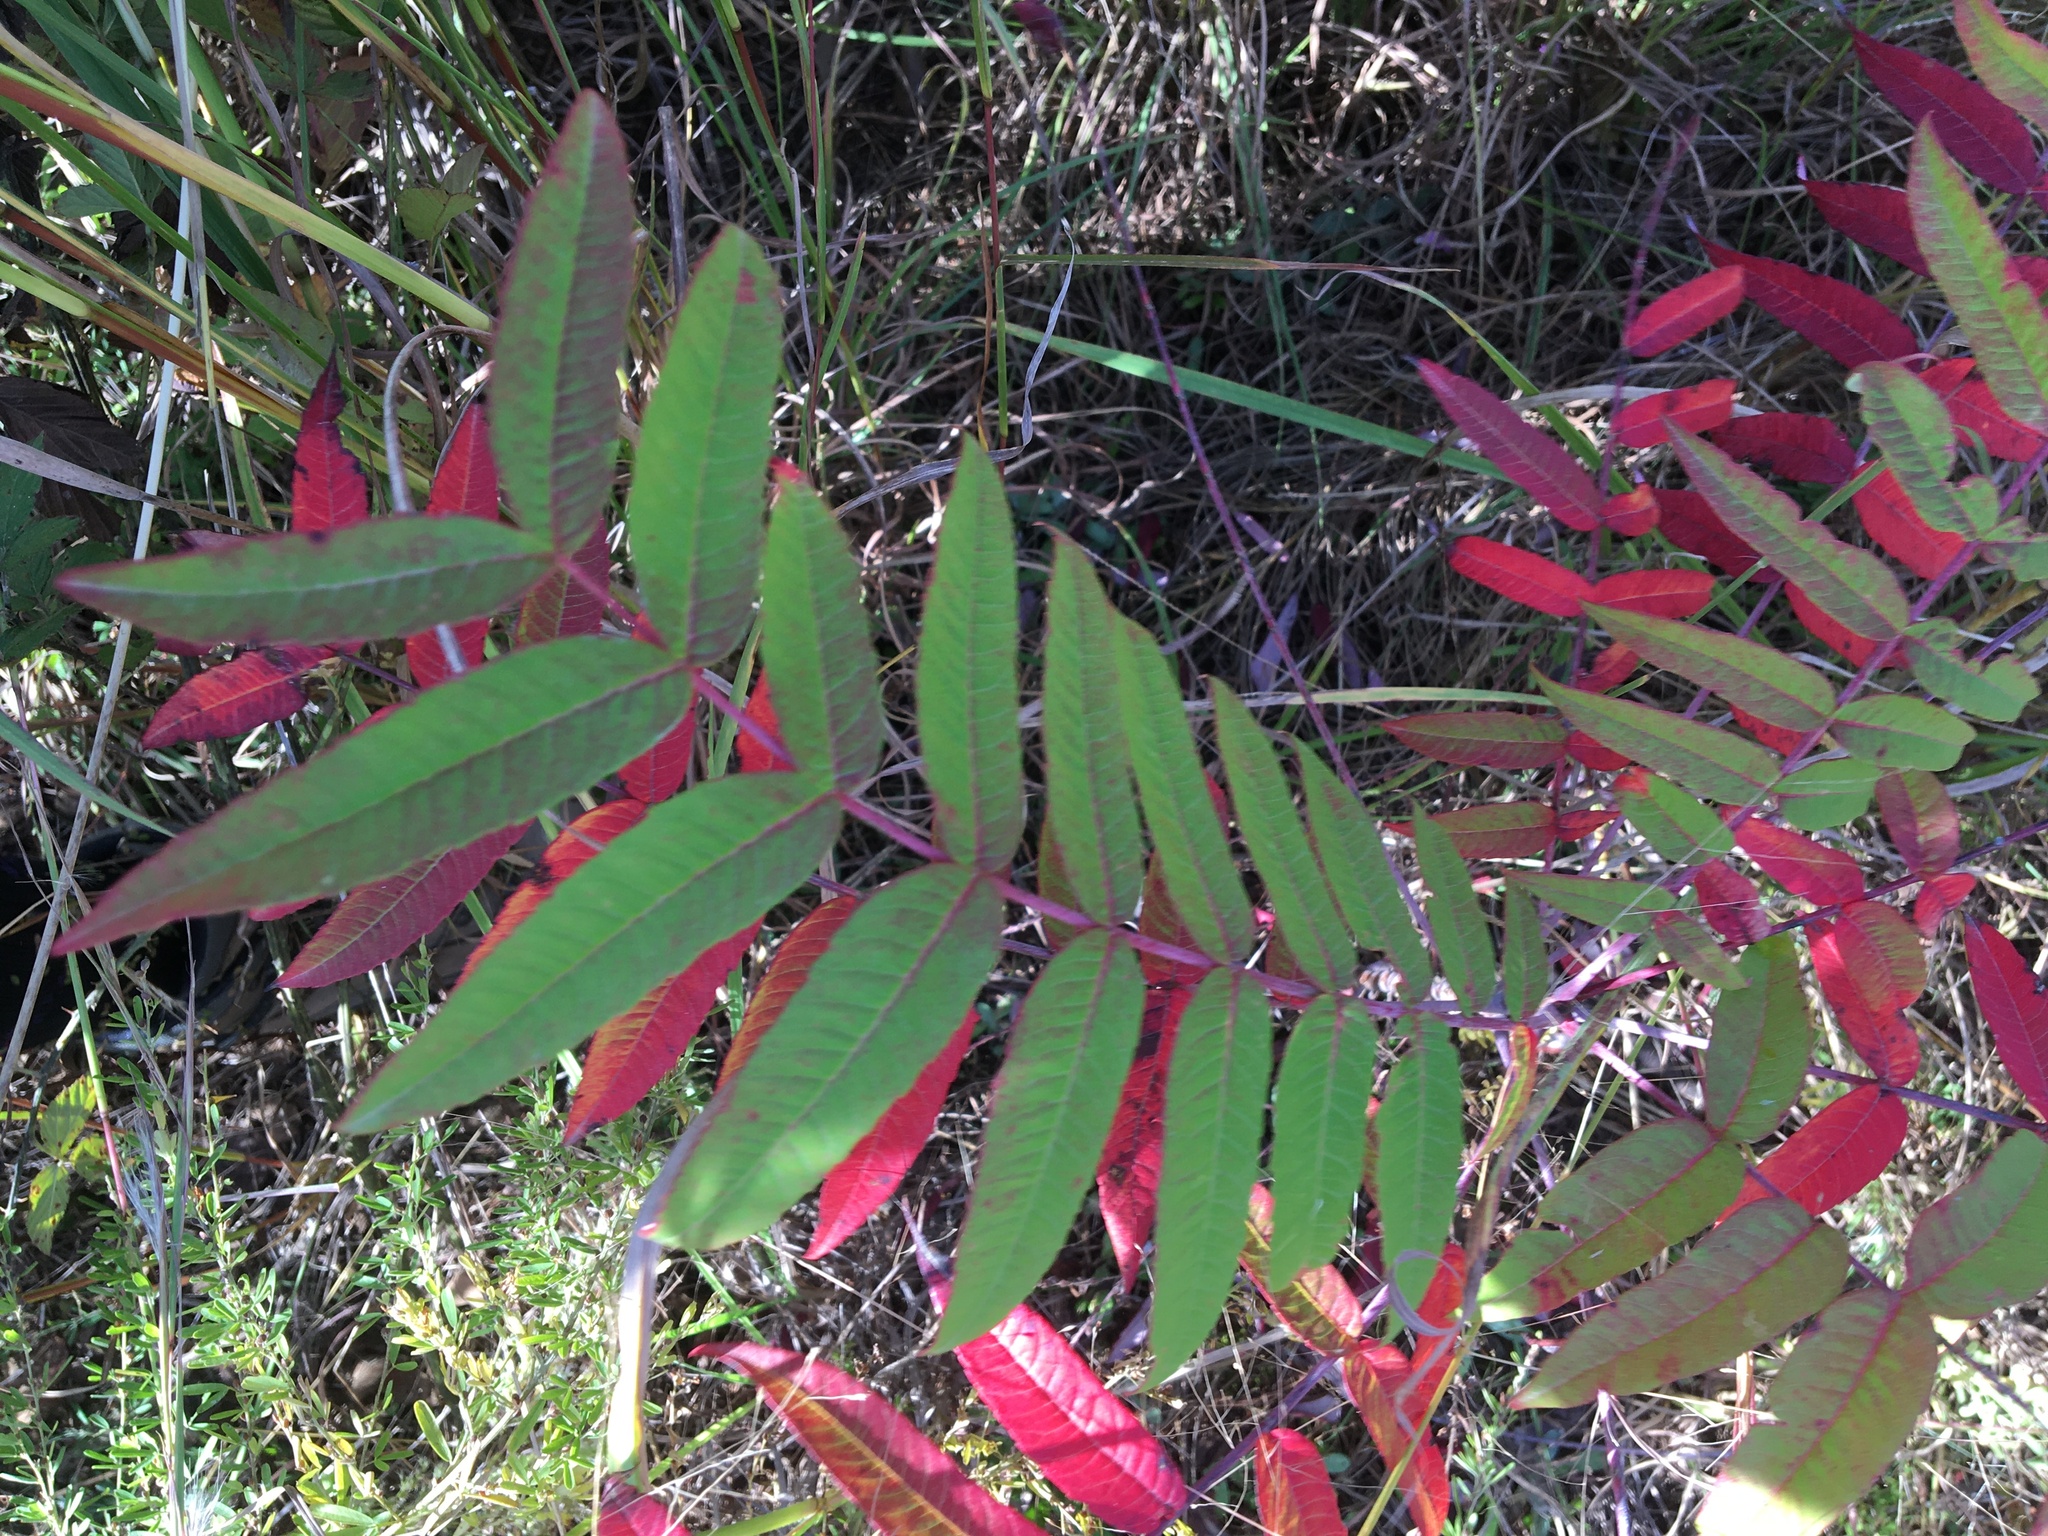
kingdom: Plantae
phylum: Tracheophyta
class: Magnoliopsida
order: Sapindales
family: Anacardiaceae
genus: Rhus
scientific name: Rhus glabra
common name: Scarlet sumac
